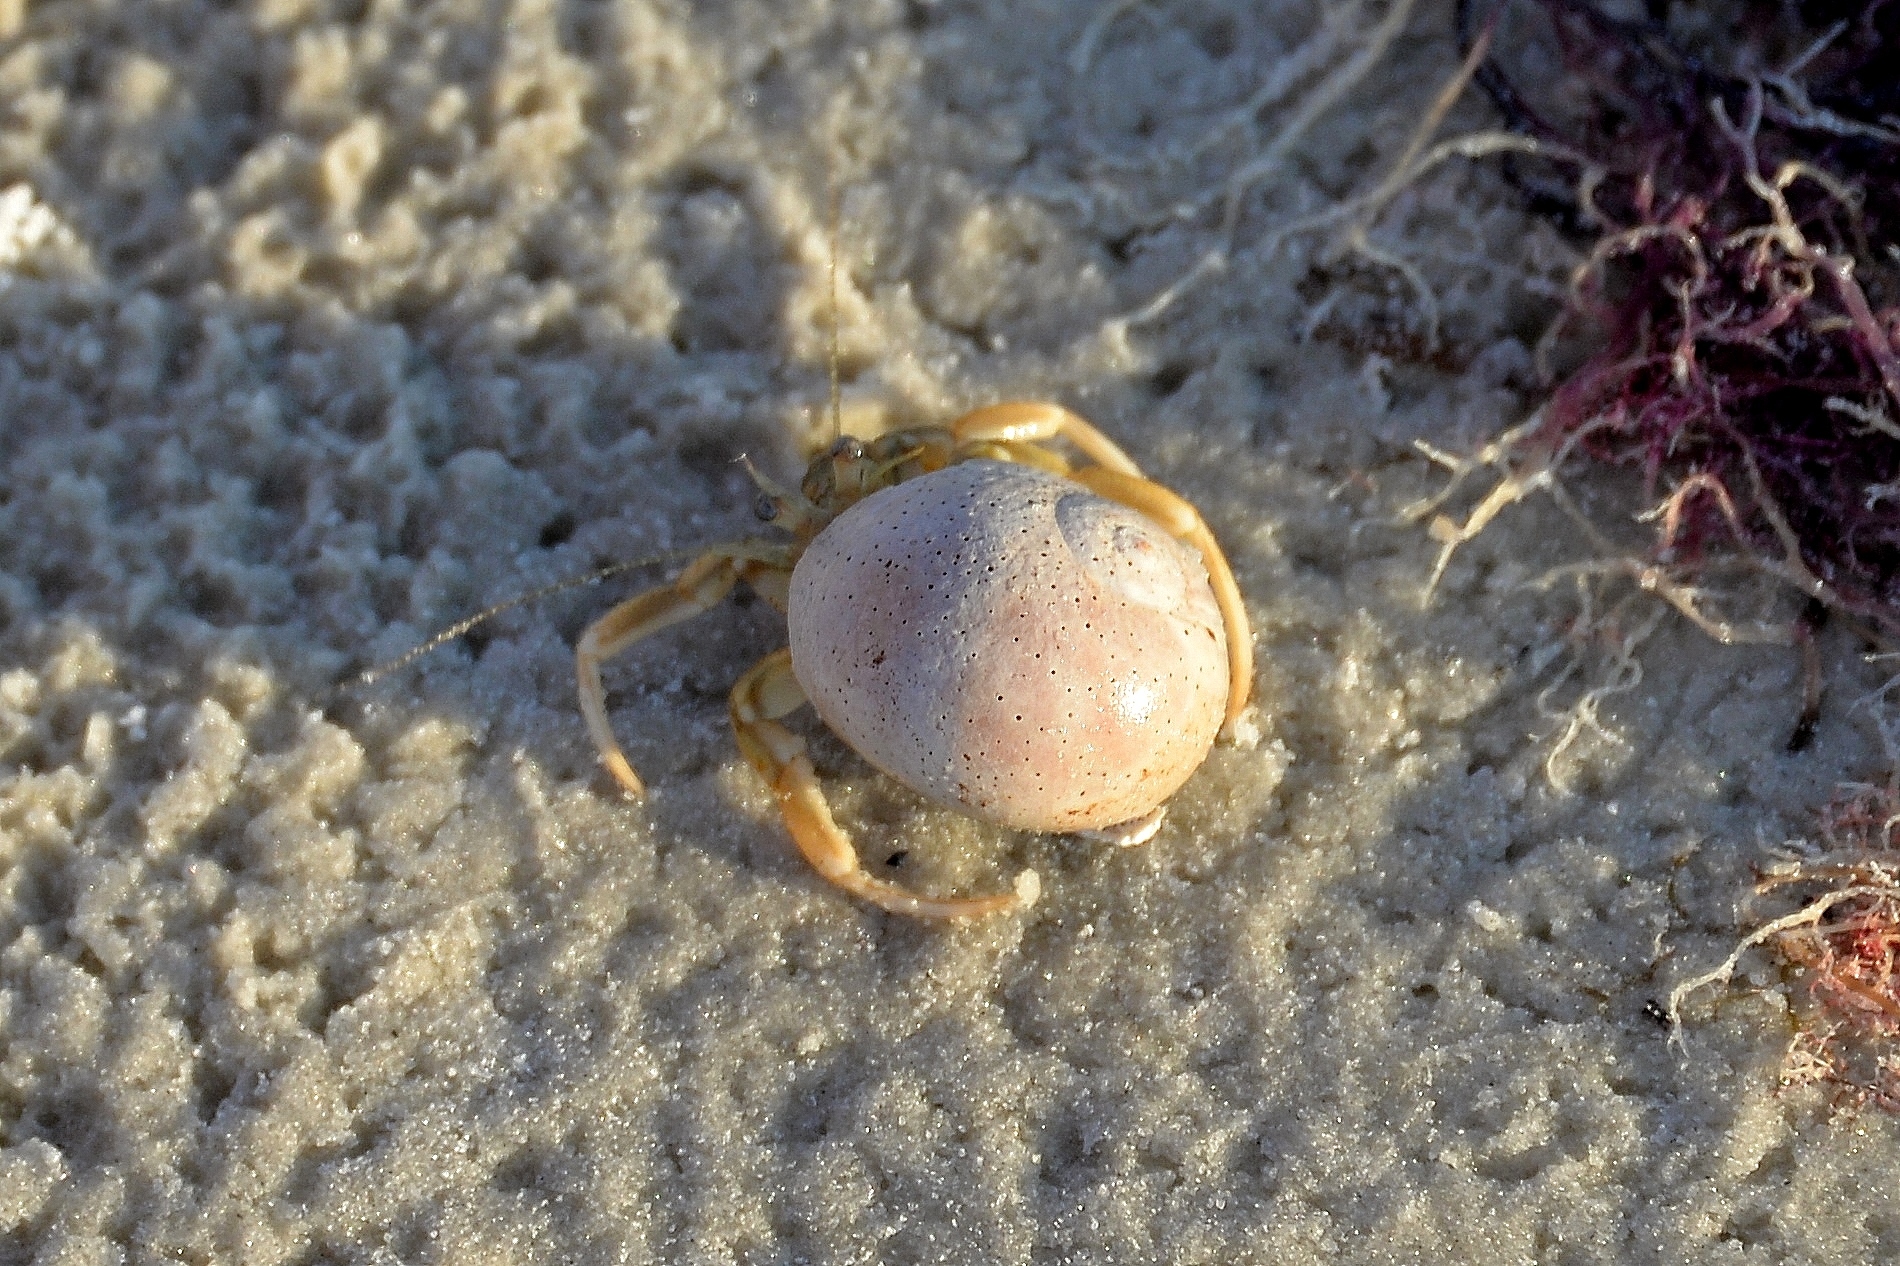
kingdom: Animalia
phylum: Arthropoda
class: Malacostraca
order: Decapoda
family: Paguridae
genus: Pagurus
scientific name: Pagurus longicarpus
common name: Long-armed hermit crab
